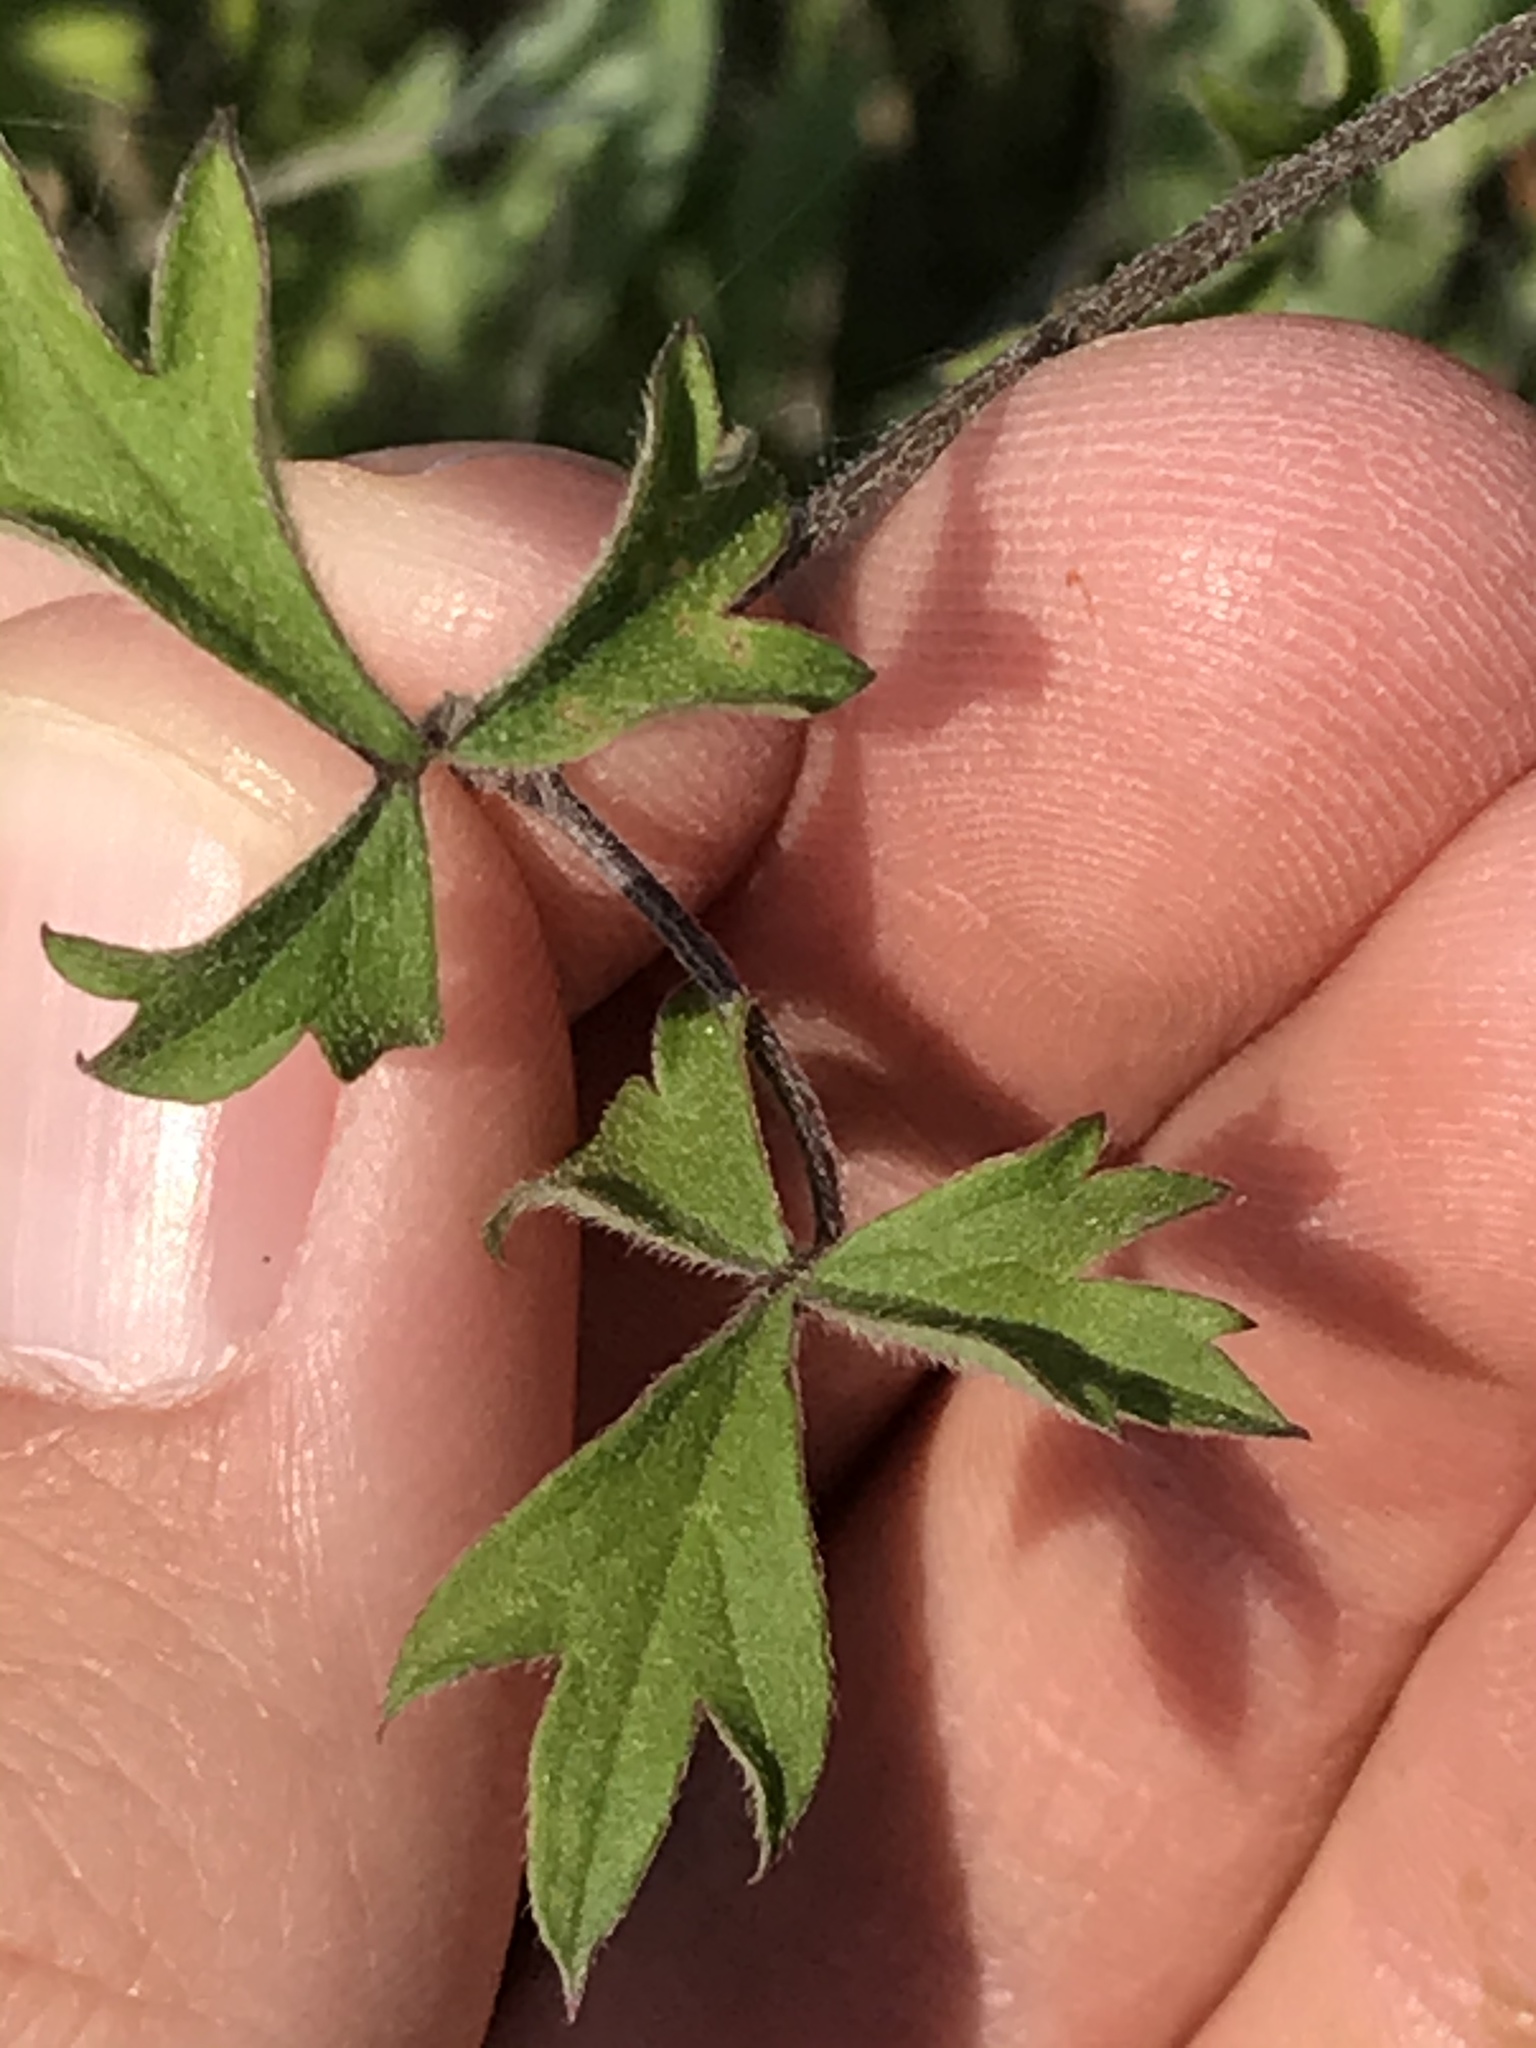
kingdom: Plantae
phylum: Tracheophyta
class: Magnoliopsida
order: Ranunculales
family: Ranunculaceae
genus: Clematis
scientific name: Clematis drummondii
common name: Texas virgin's bower
